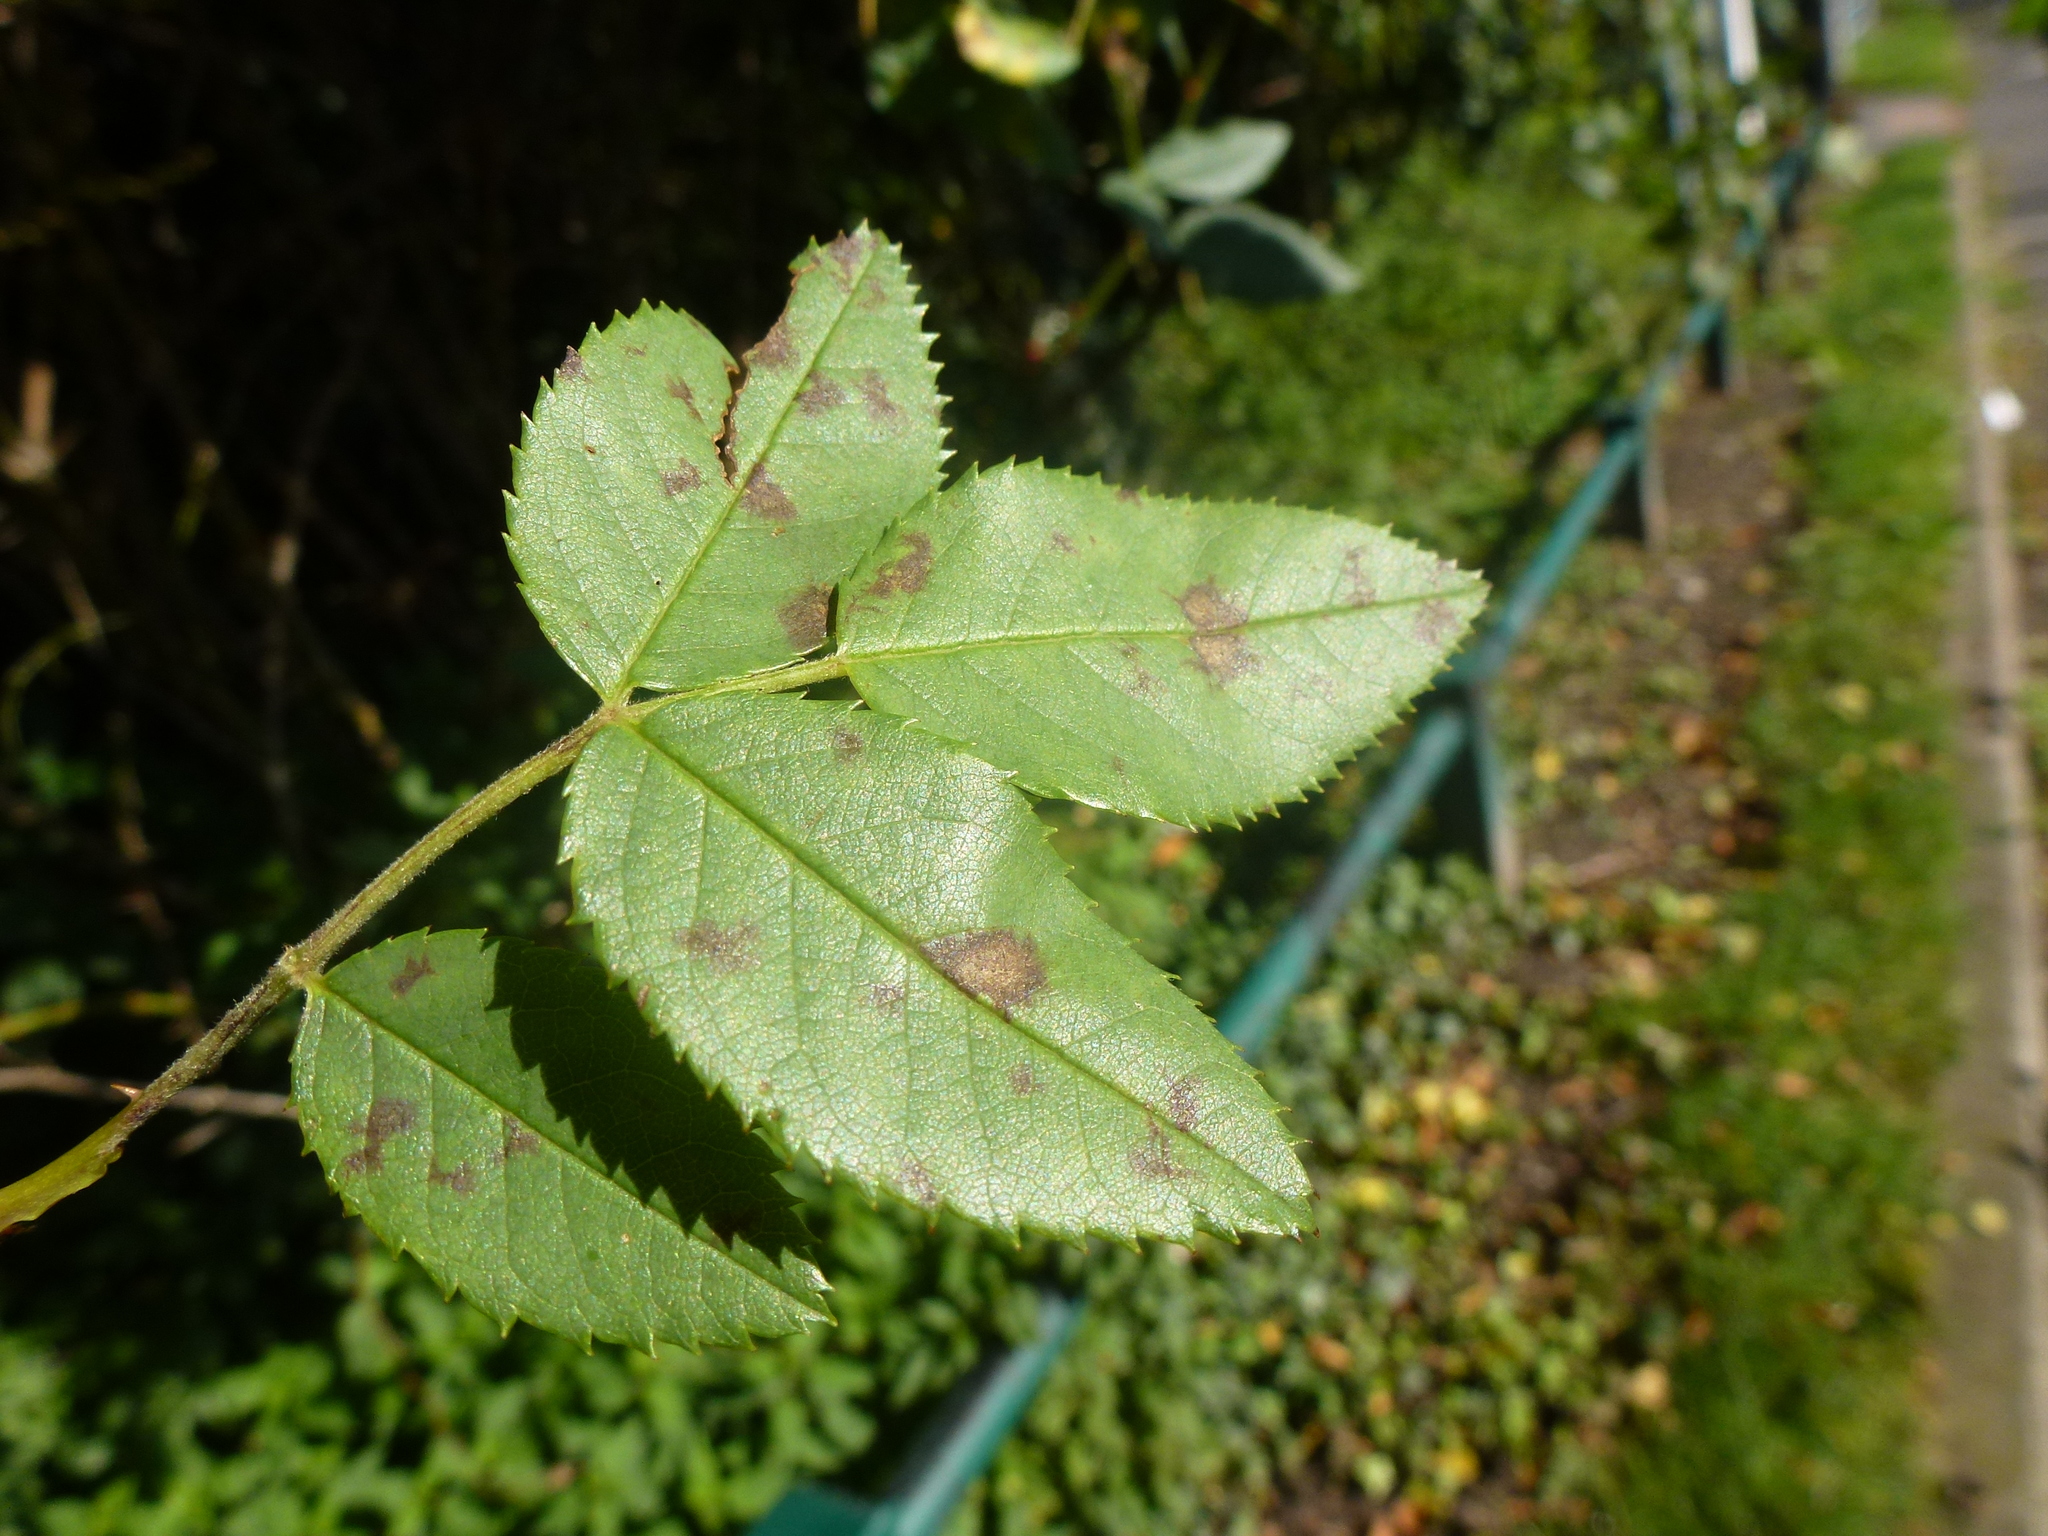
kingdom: Fungi
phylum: Ascomycota
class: Leotiomycetes
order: Helotiales
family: Drepanopezizaceae
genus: Diplocarpon
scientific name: Diplocarpon rosae
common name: Rose black-spot
